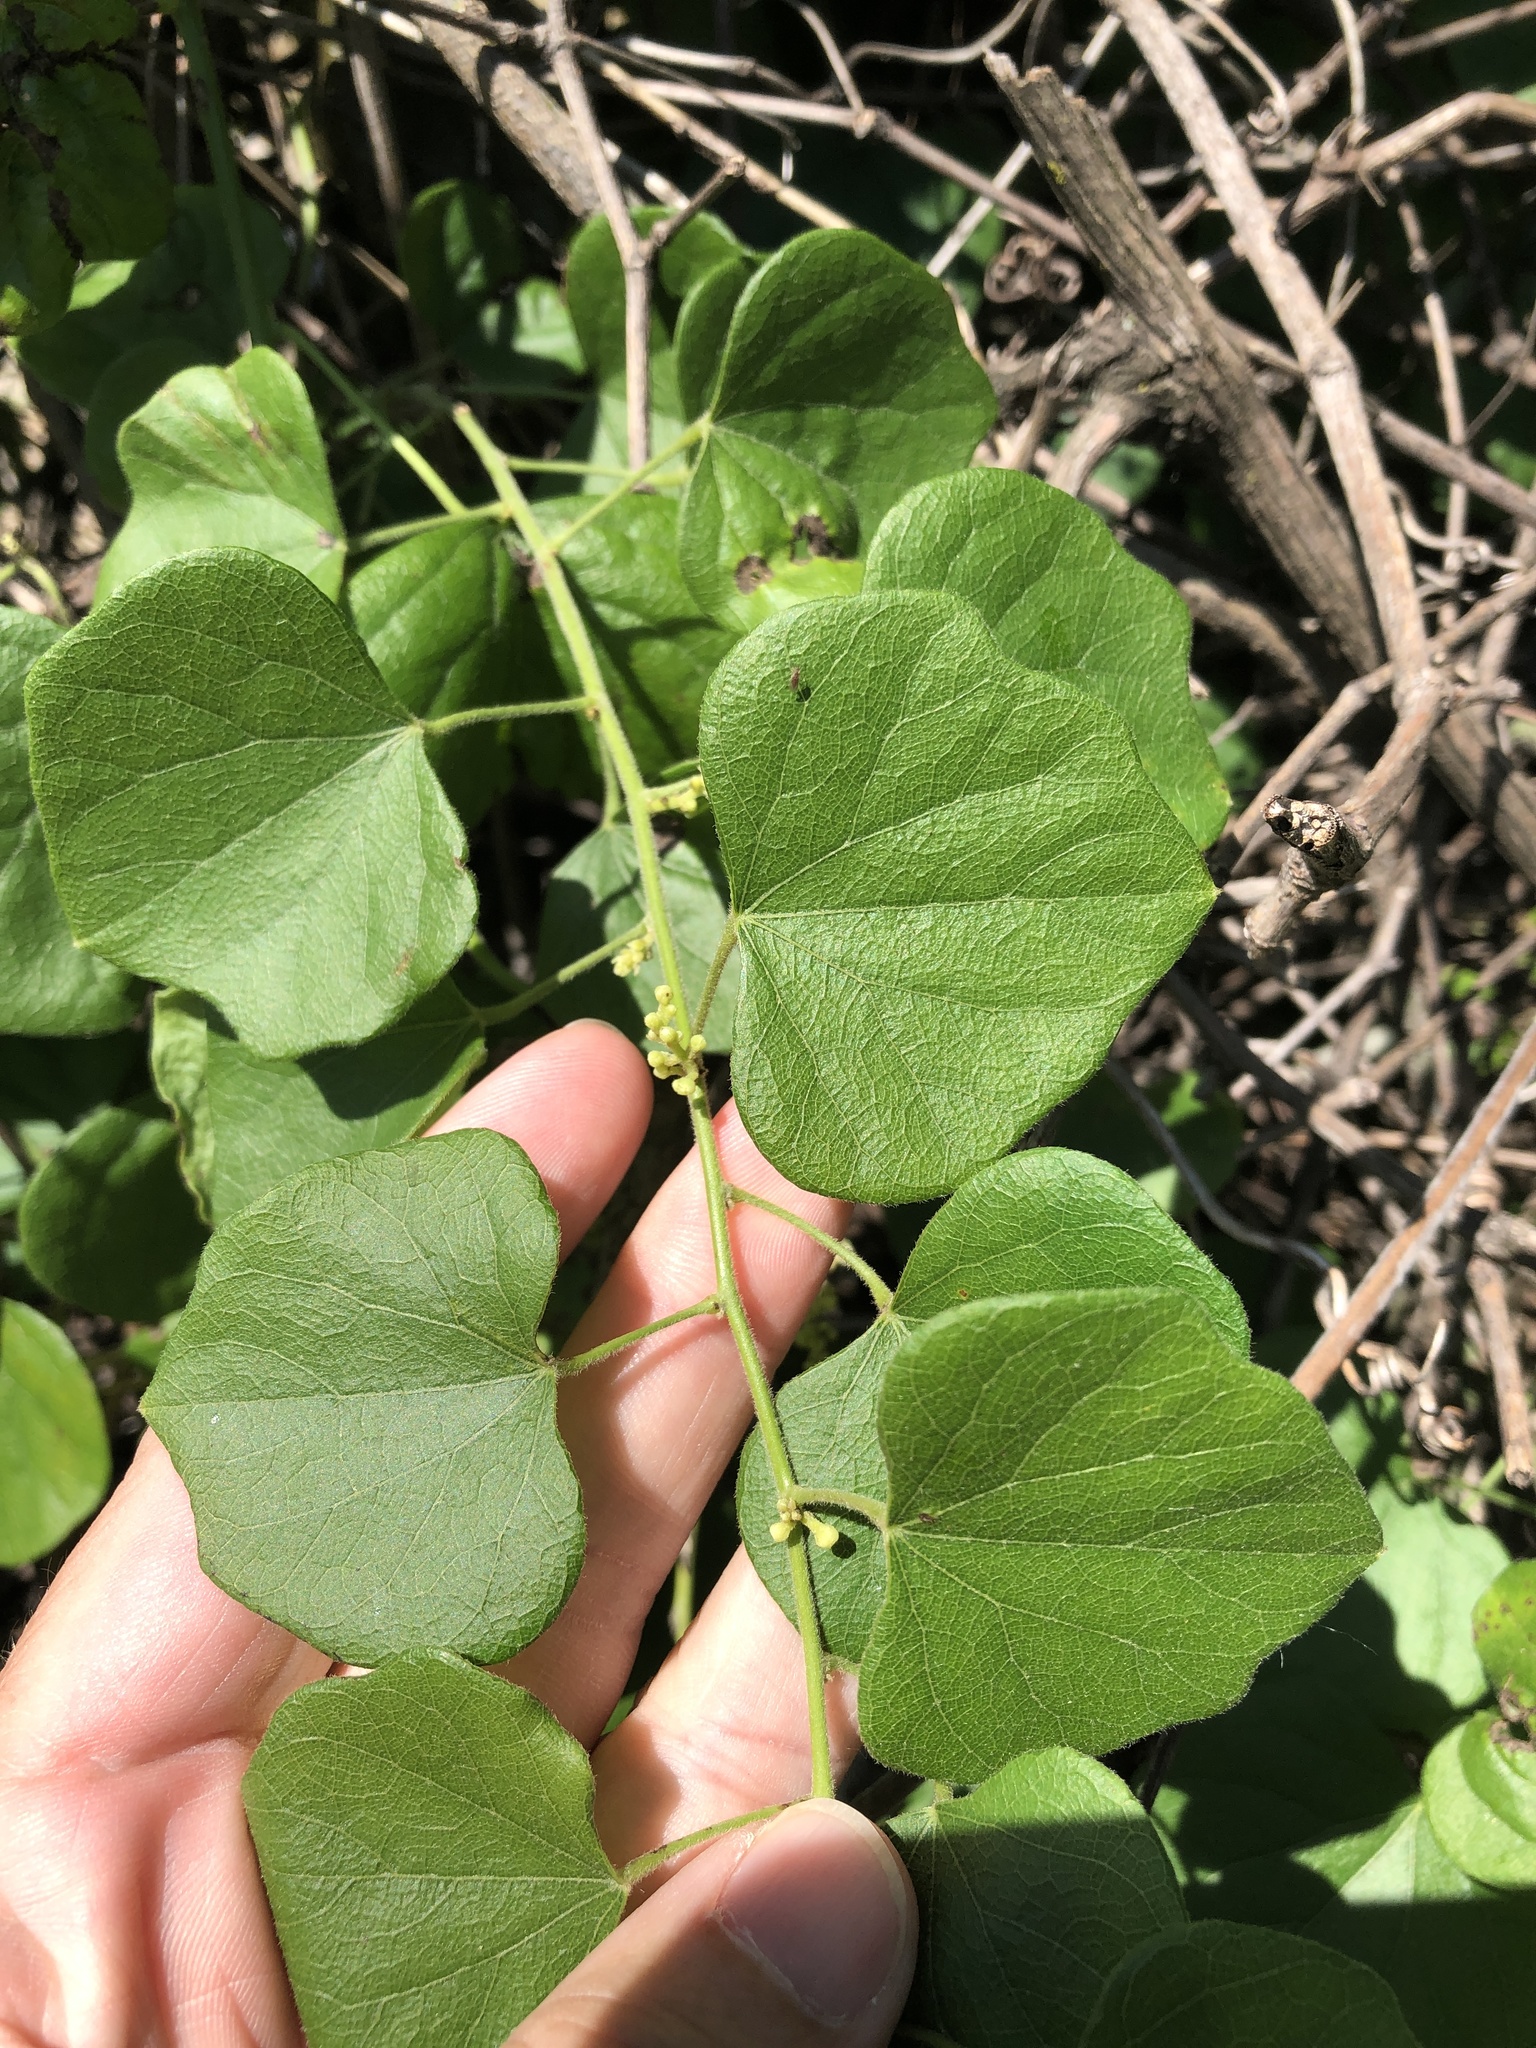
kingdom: Plantae
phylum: Tracheophyta
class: Magnoliopsida
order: Ranunculales
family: Menispermaceae
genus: Cocculus
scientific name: Cocculus carolinus
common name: Carolina moonseed
